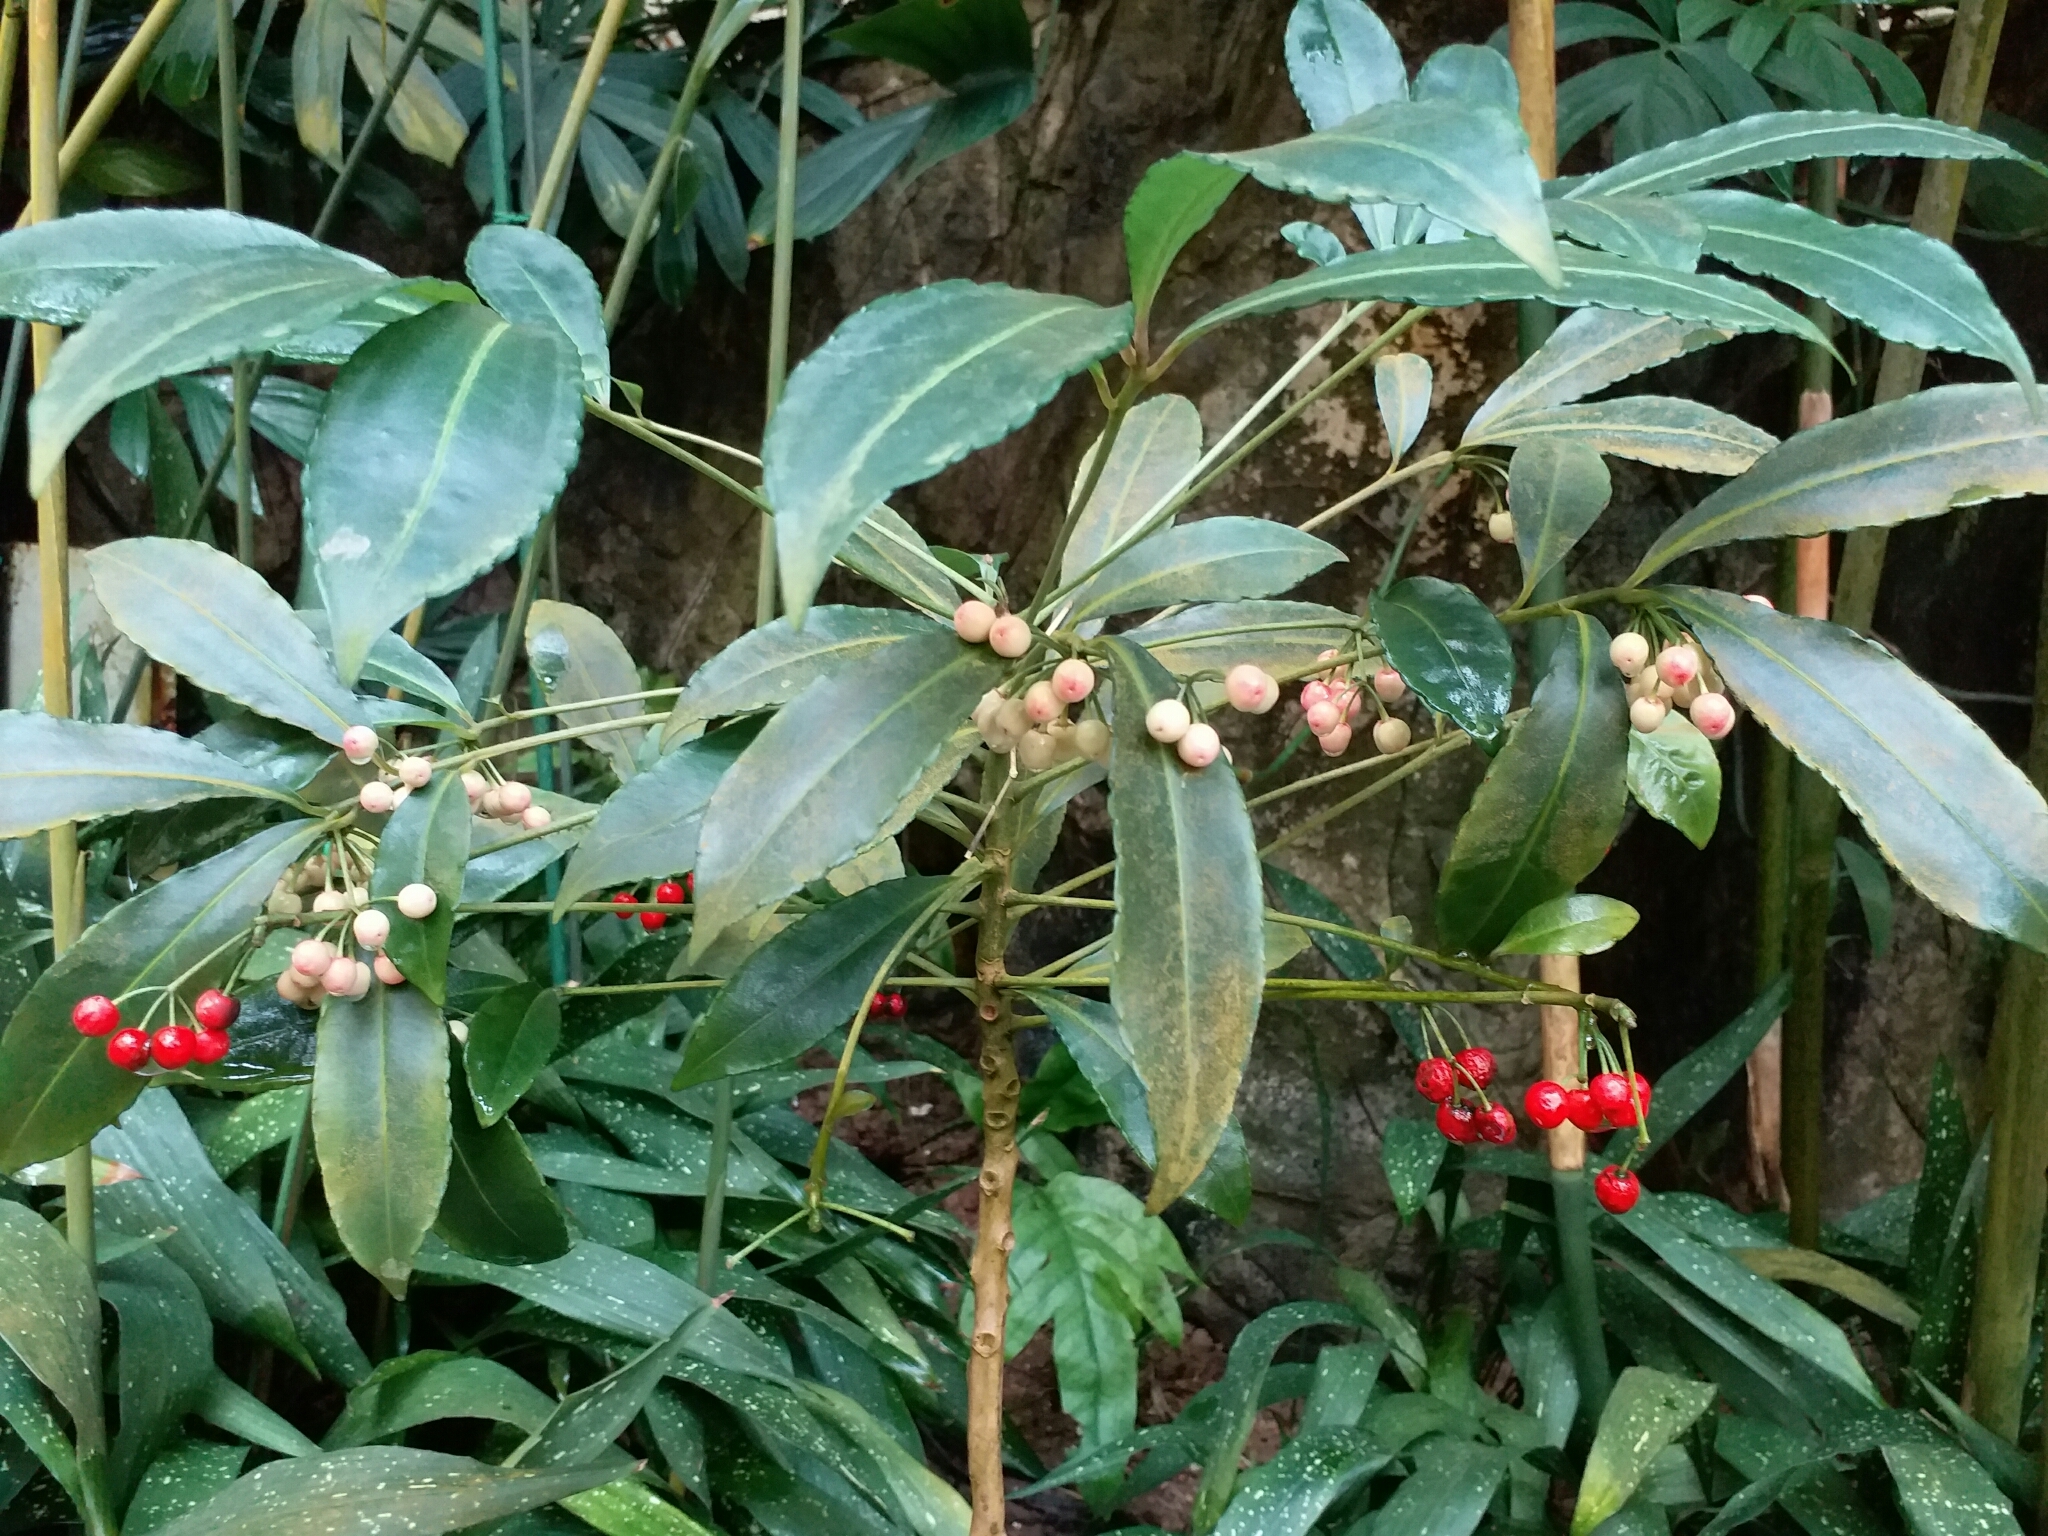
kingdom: Plantae
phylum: Tracheophyta
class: Magnoliopsida
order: Ericales
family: Primulaceae
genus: Ardisia
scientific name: Ardisia crenata
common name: Hen's eyes
